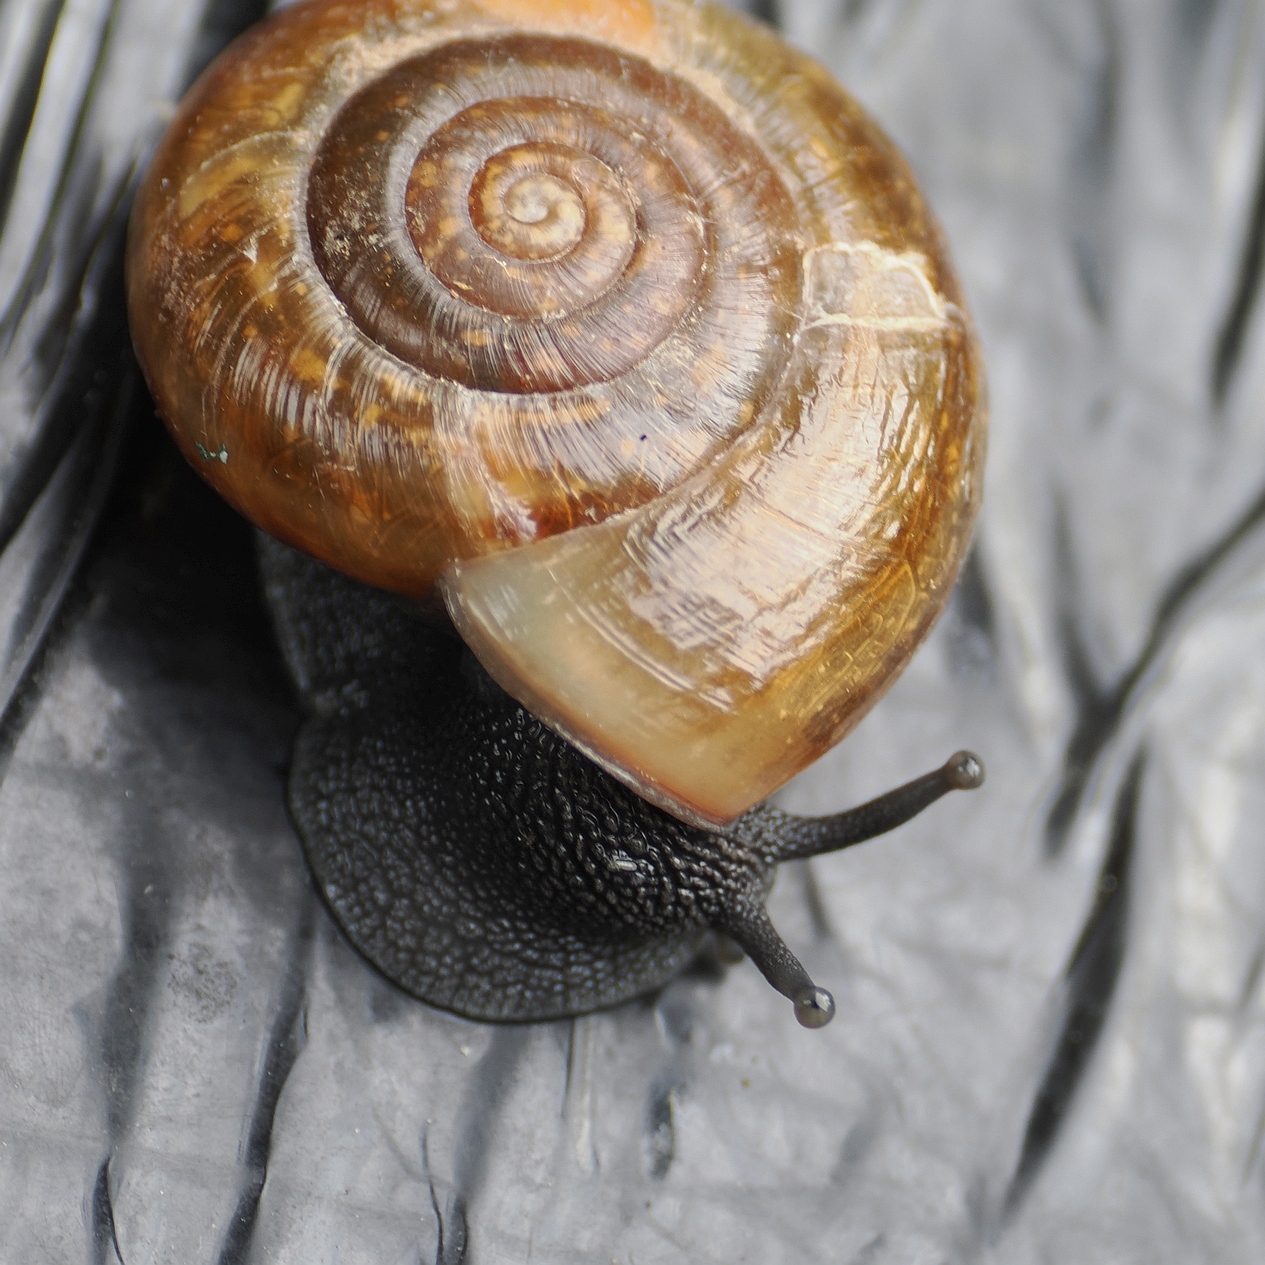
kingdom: Animalia
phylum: Mollusca
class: Gastropoda
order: Stylommatophora
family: Helicidae
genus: Campylaea
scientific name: Campylaea illyrica
